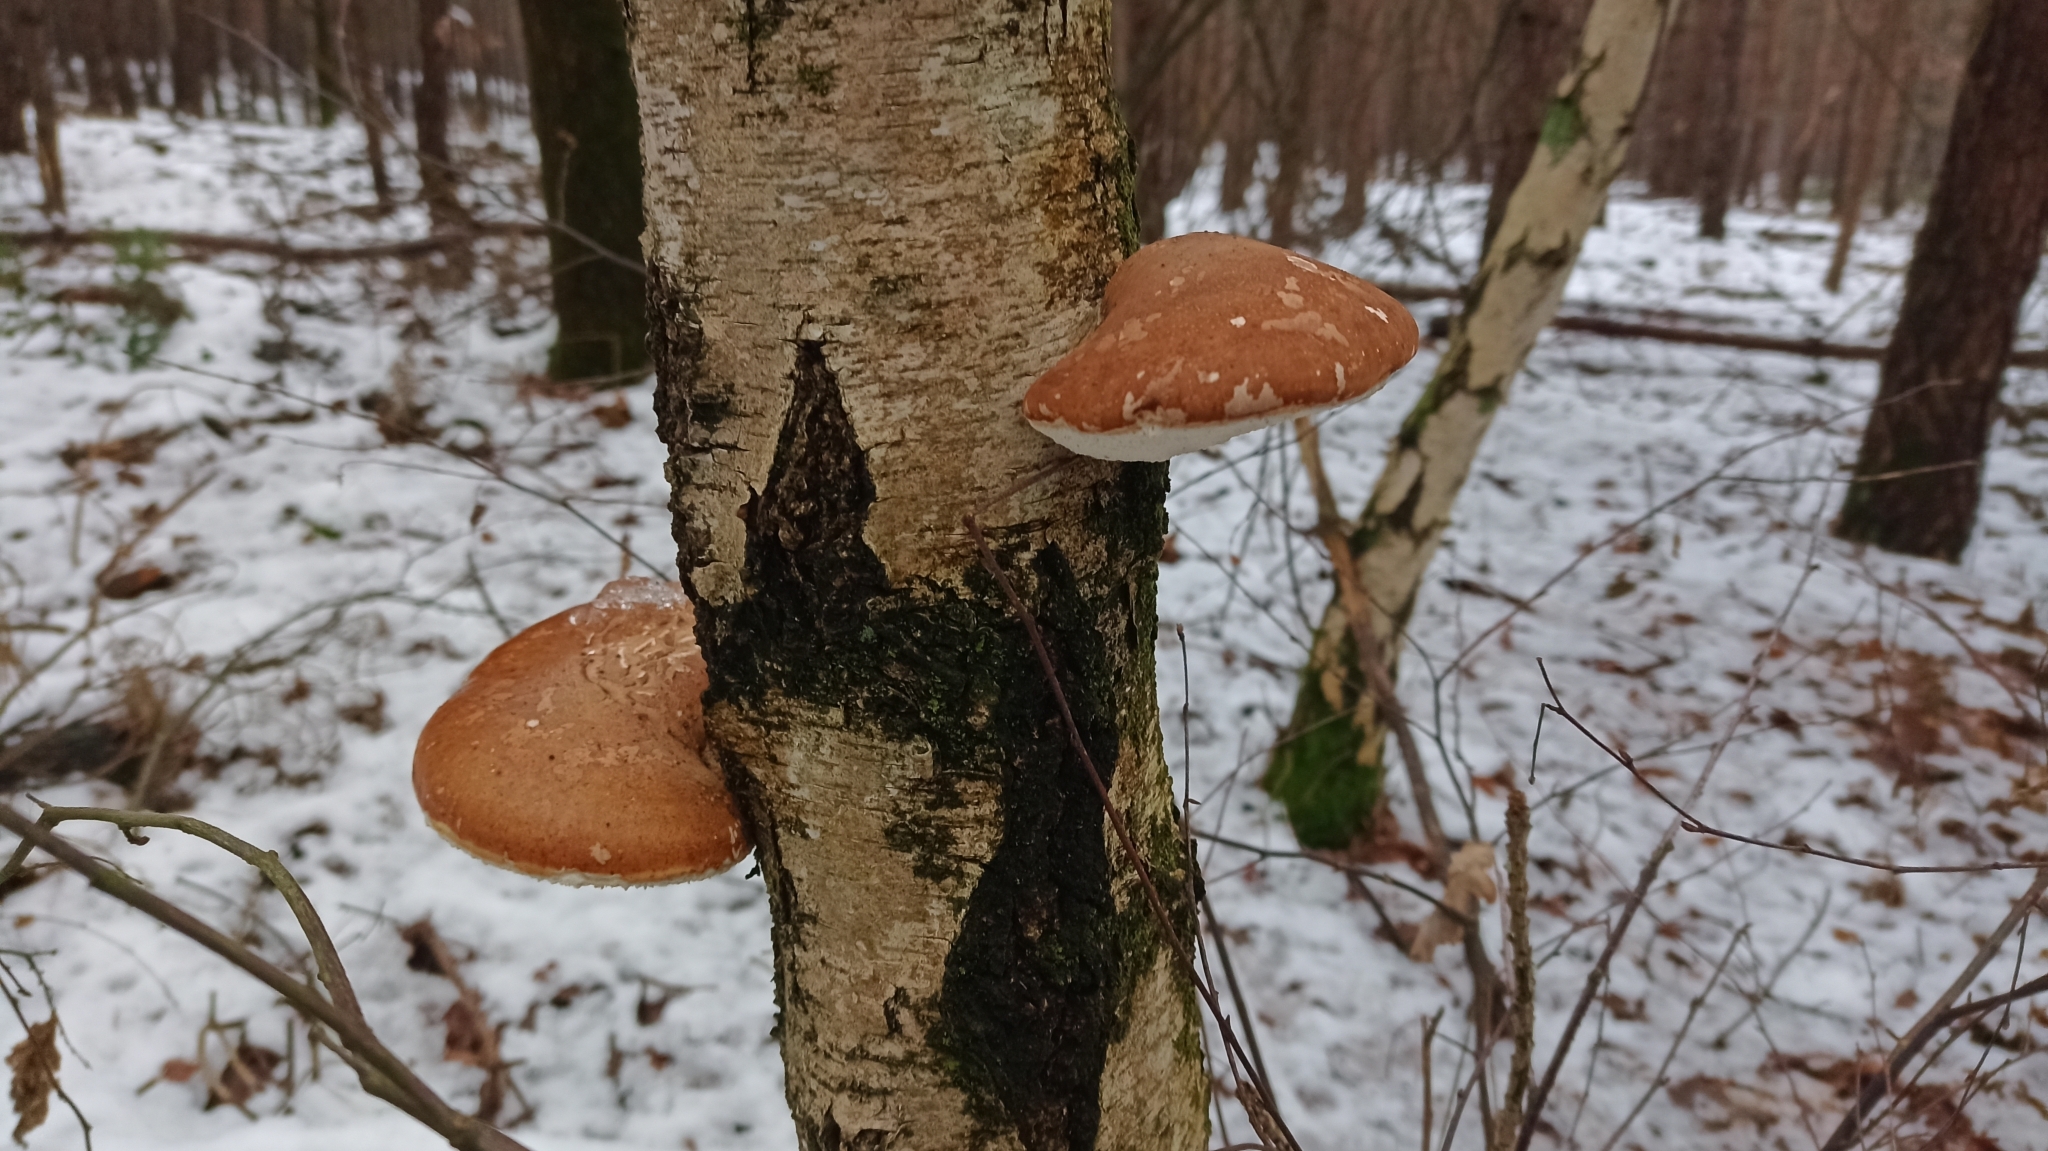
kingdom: Fungi
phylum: Basidiomycota
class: Agaricomycetes
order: Polyporales
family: Fomitopsidaceae
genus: Fomitopsis
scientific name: Fomitopsis betulina
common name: Birch polypore
